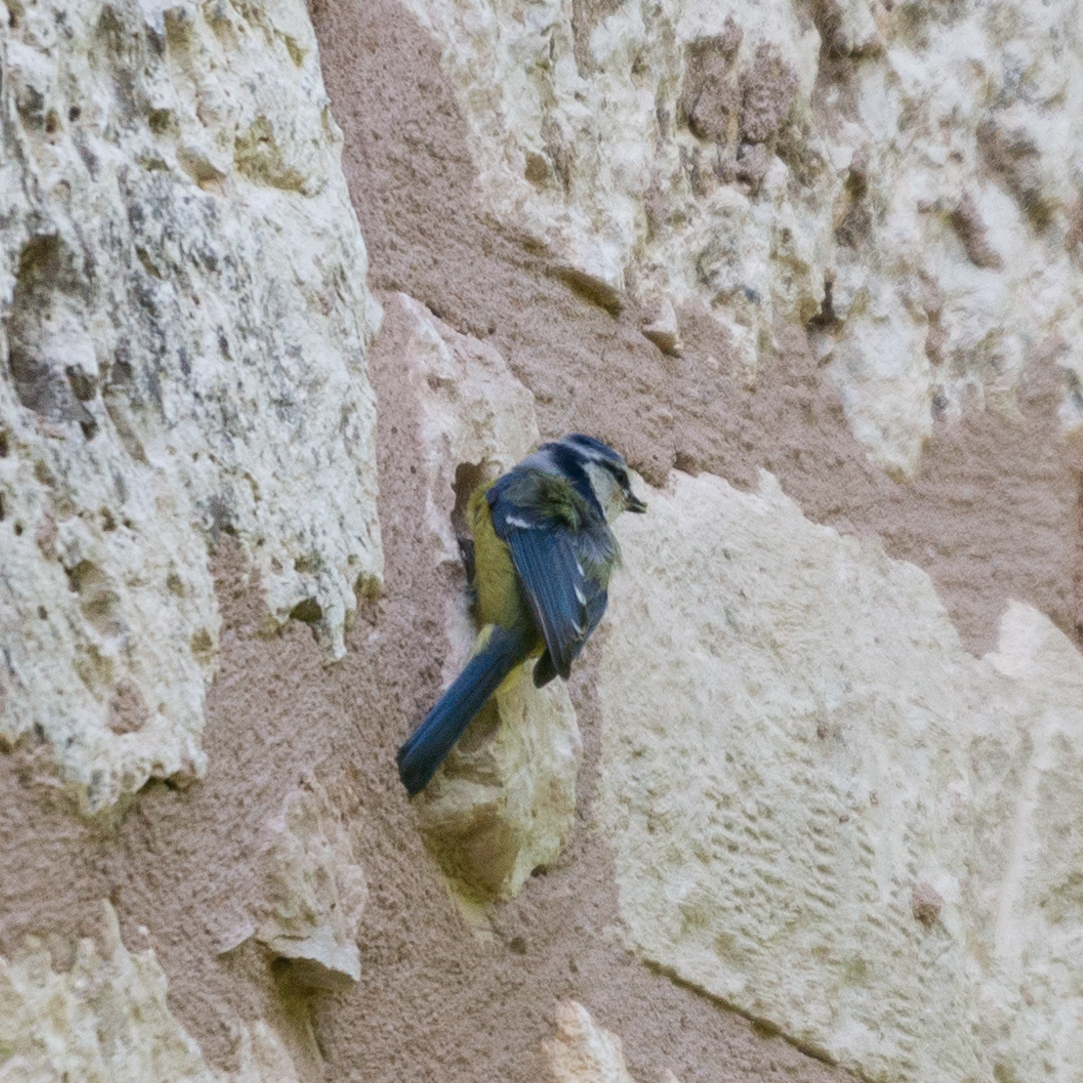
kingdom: Animalia
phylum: Chordata
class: Aves
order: Passeriformes
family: Paridae
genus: Cyanistes
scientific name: Cyanistes caeruleus
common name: Eurasian blue tit
